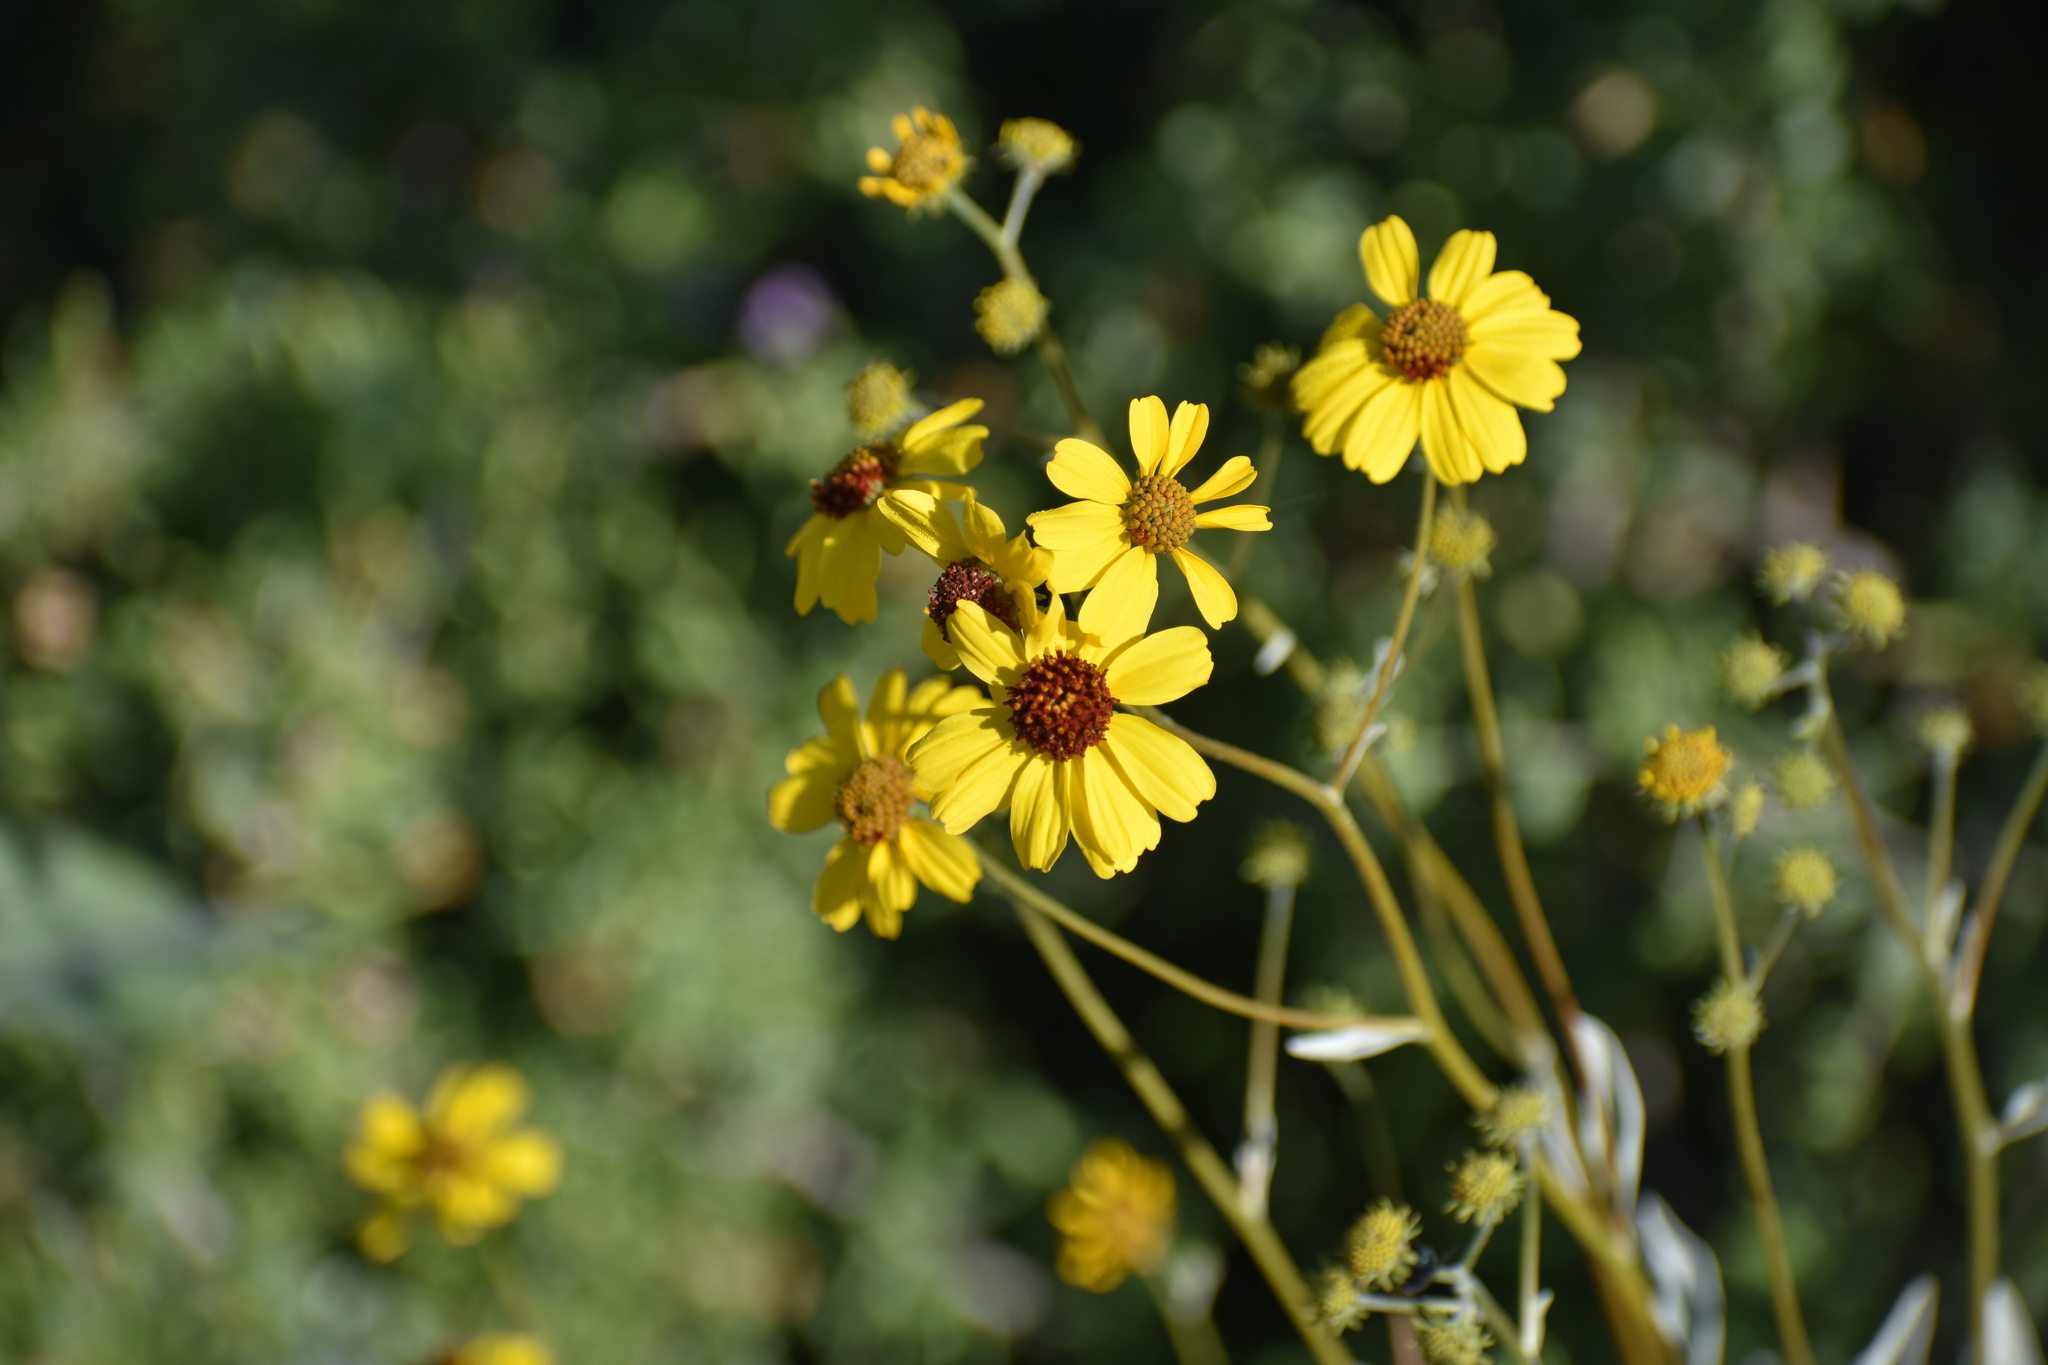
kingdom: Plantae
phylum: Tracheophyta
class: Magnoliopsida
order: Asterales
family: Asteraceae
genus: Encelia
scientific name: Encelia farinosa
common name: Brittlebush
